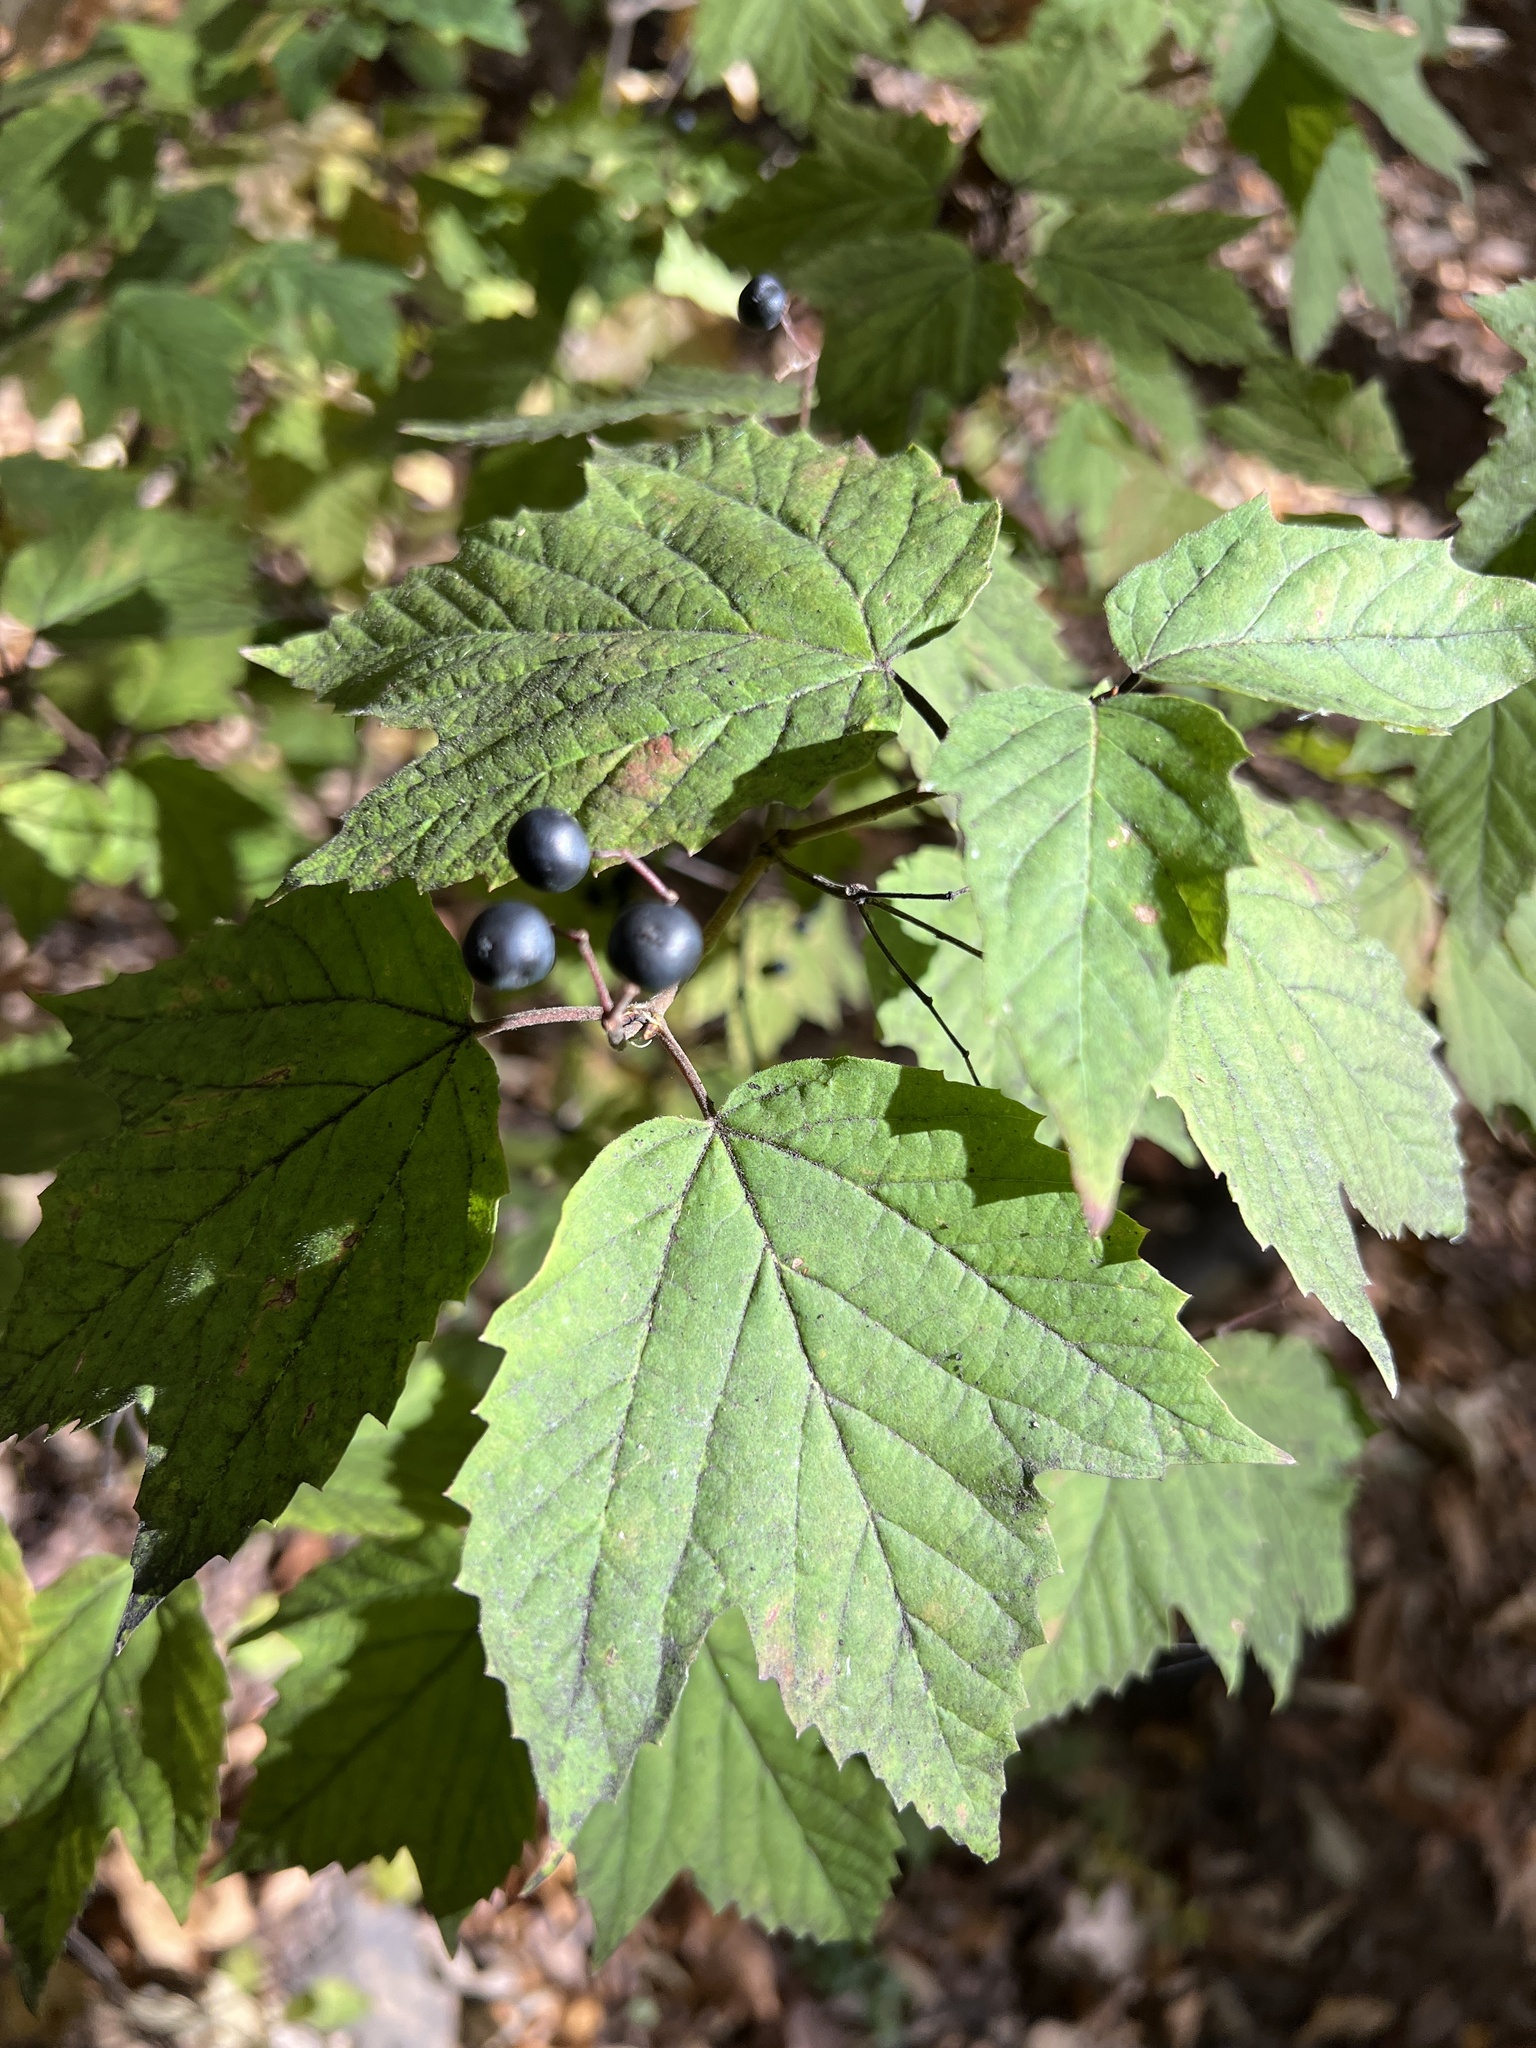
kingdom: Plantae
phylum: Tracheophyta
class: Magnoliopsida
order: Dipsacales
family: Viburnaceae
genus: Viburnum
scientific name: Viburnum acerifolium
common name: Dockmackie
